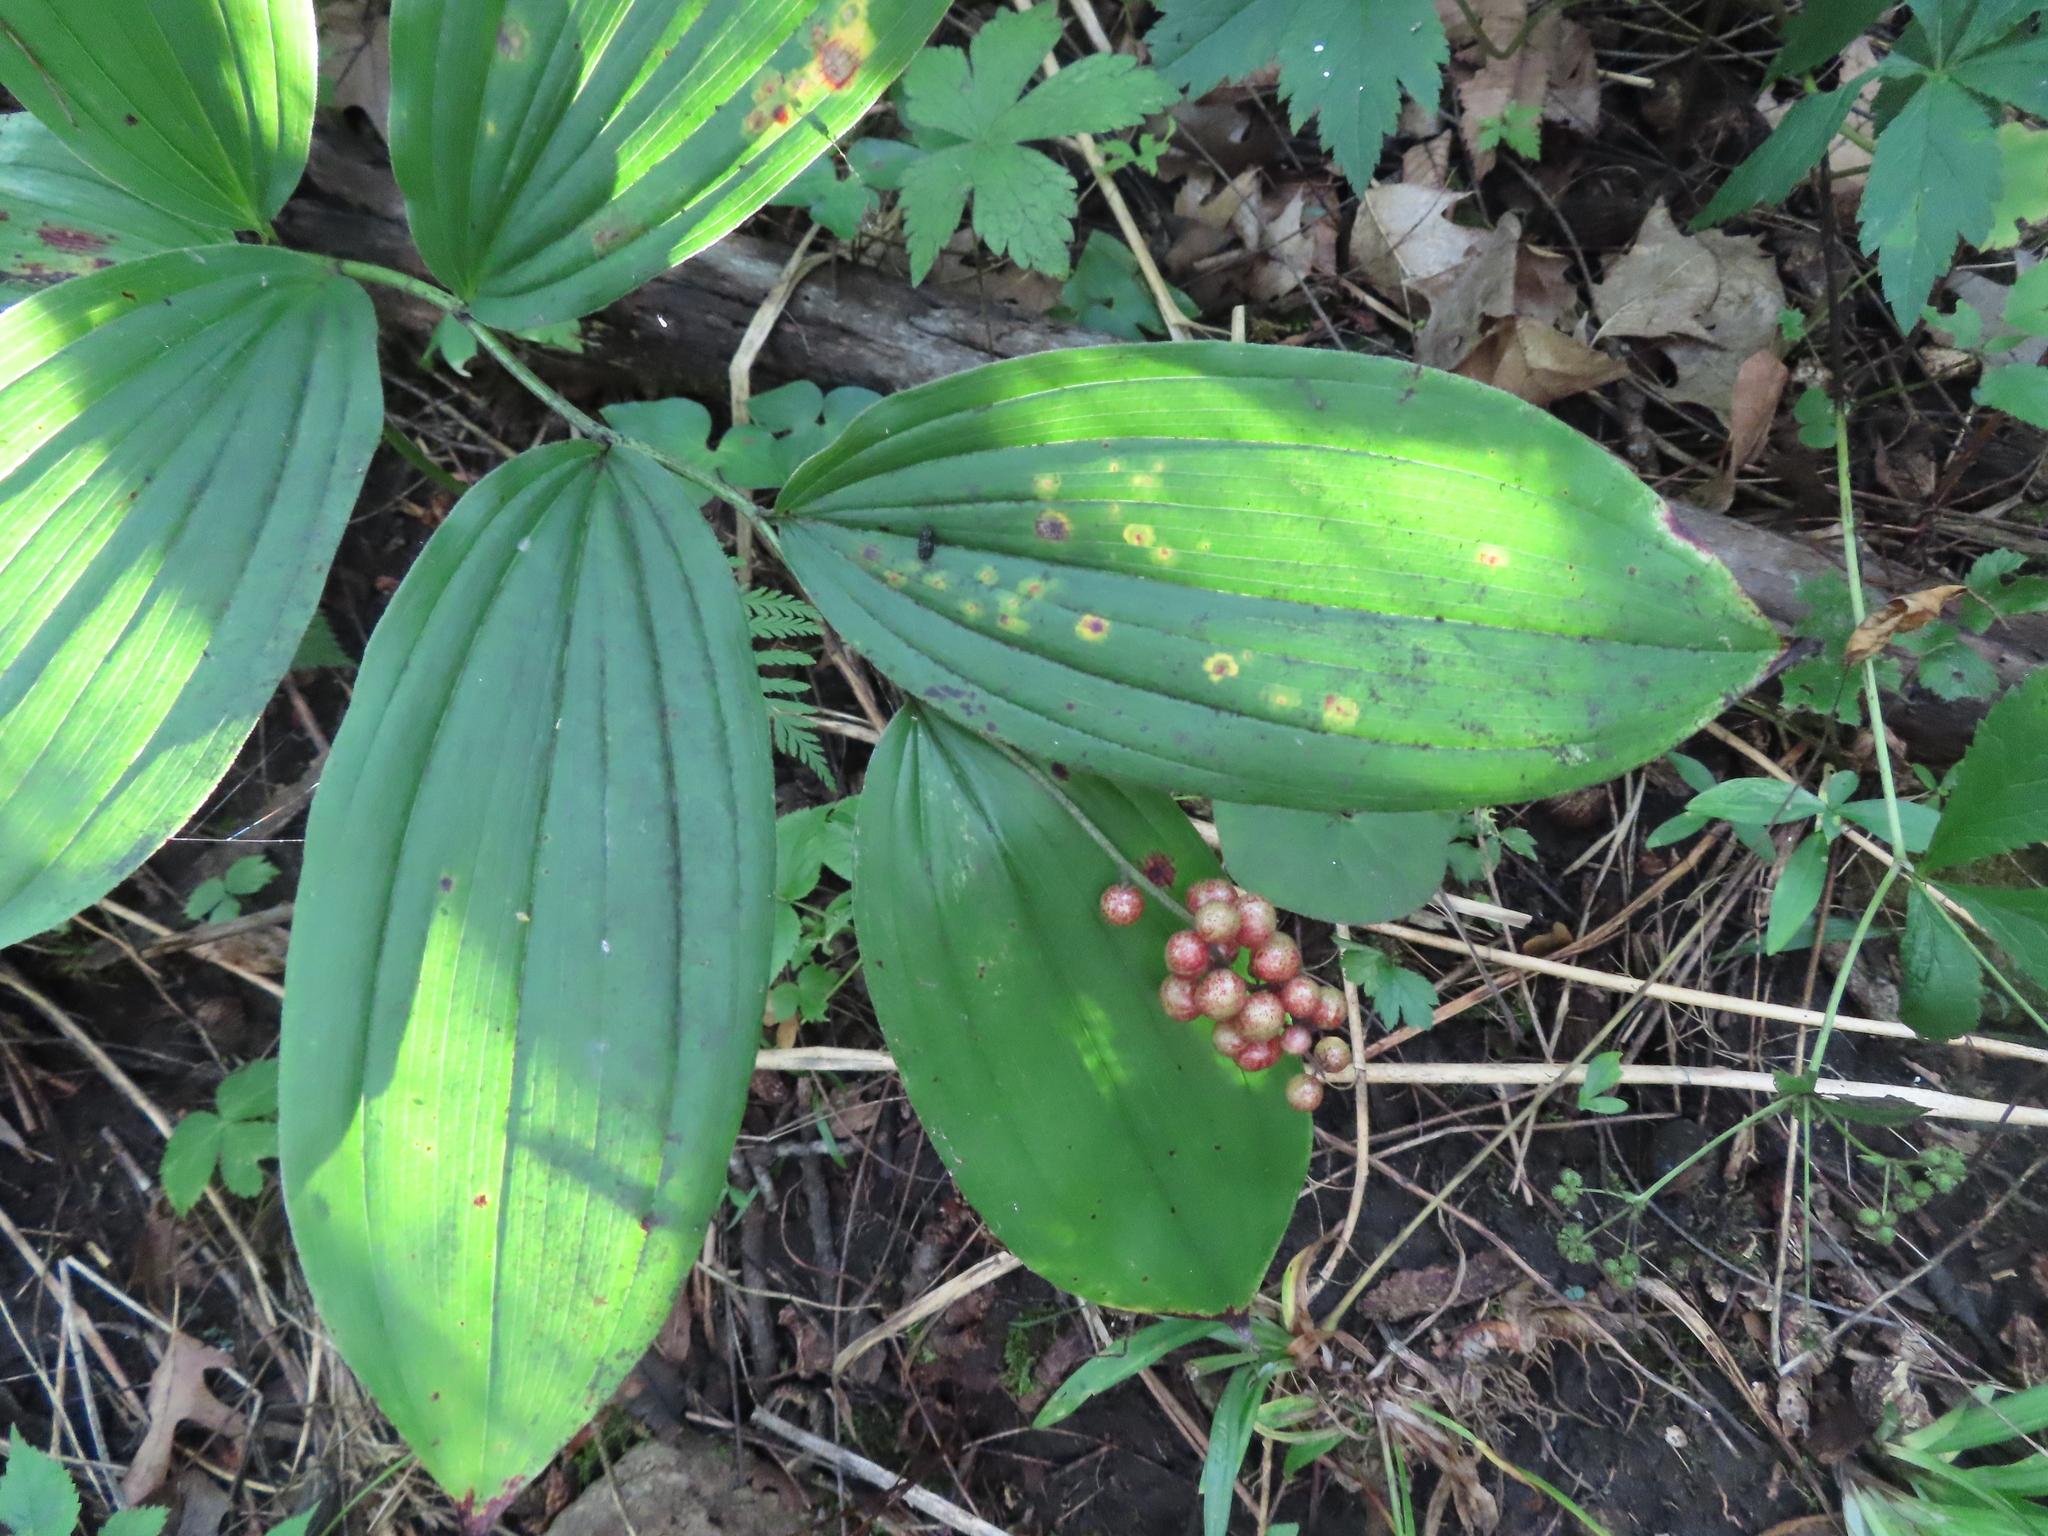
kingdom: Plantae
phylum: Tracheophyta
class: Liliopsida
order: Asparagales
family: Asparagaceae
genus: Maianthemum
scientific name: Maianthemum racemosum
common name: False spikenard
